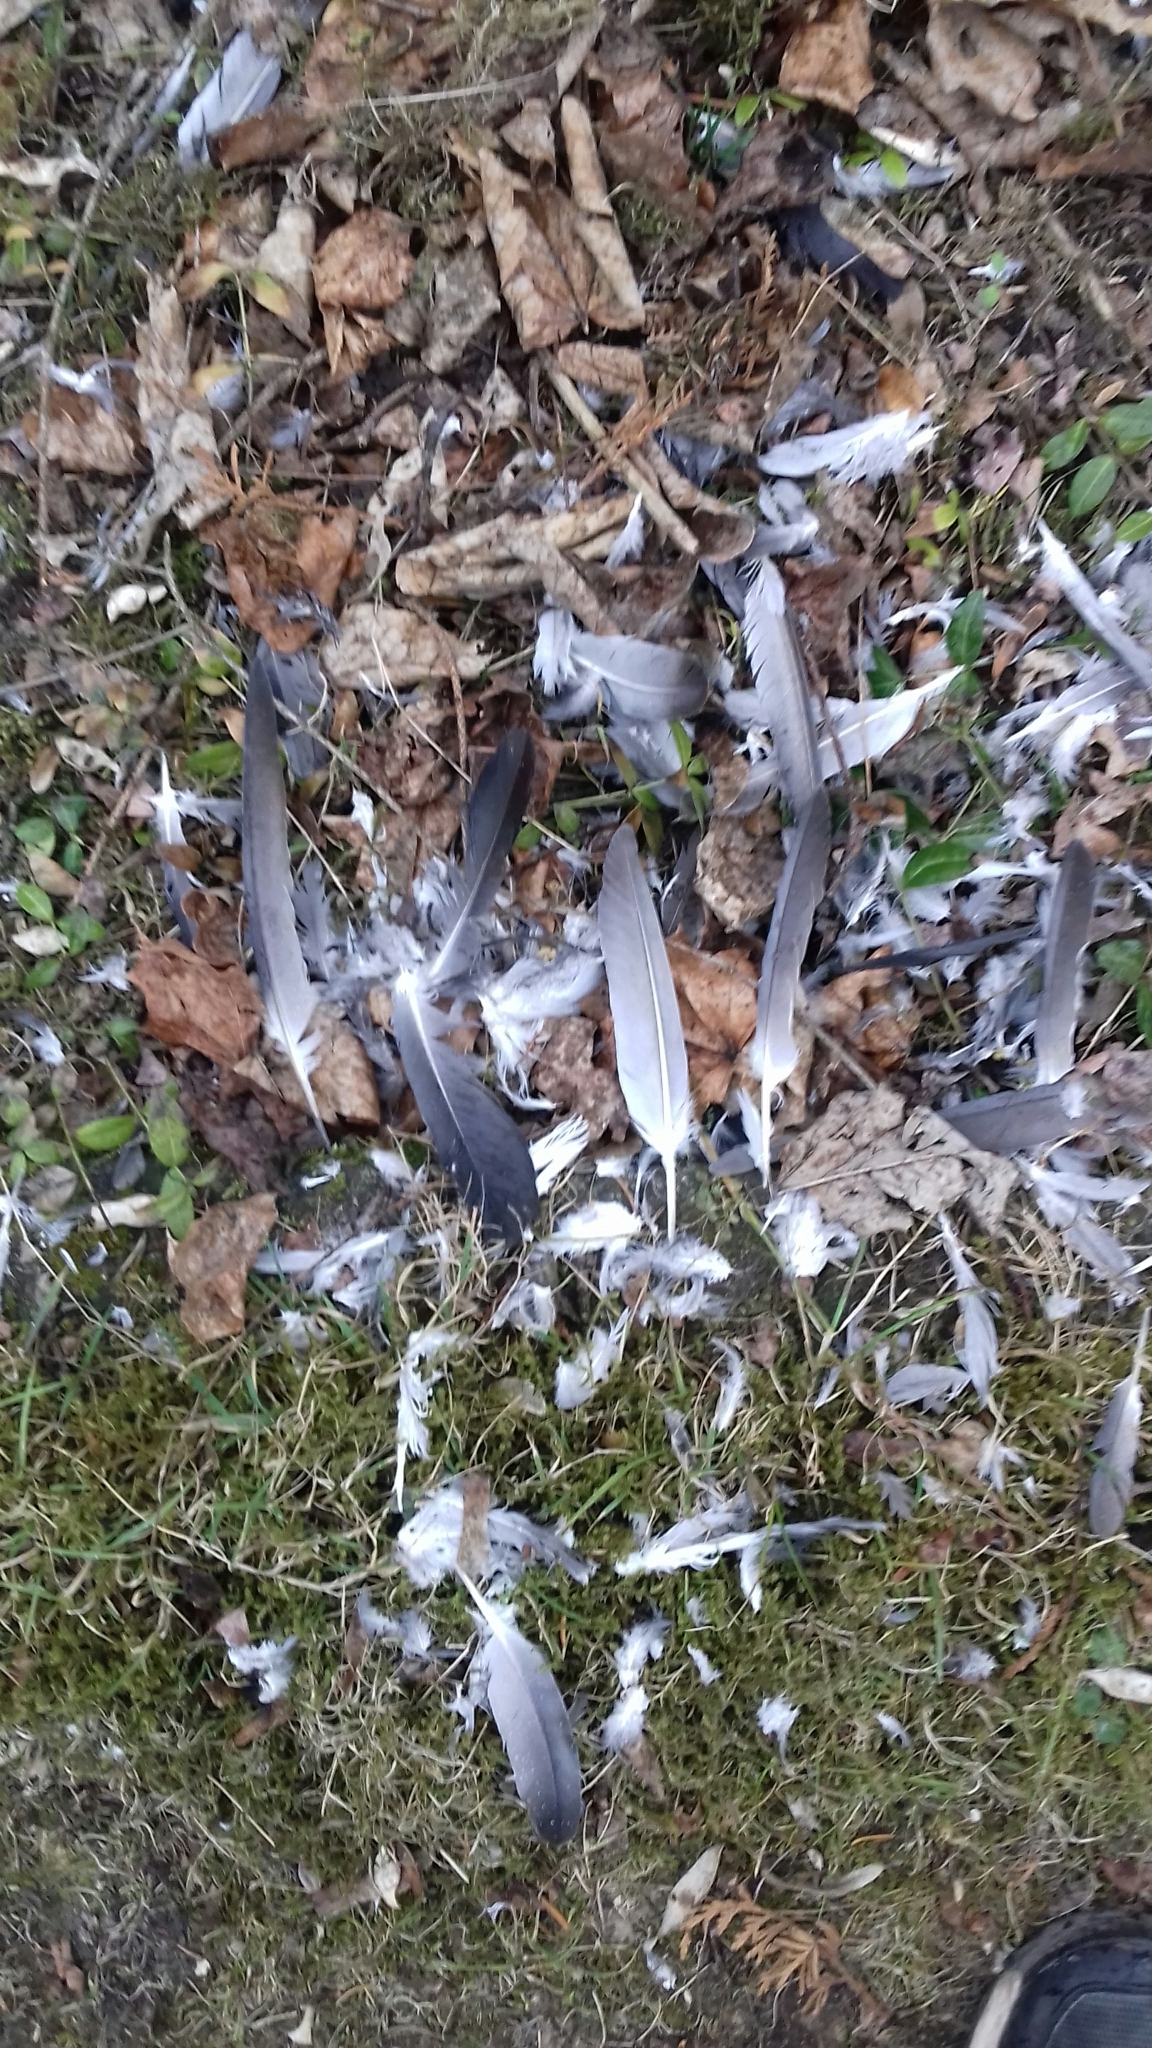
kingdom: Animalia
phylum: Chordata
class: Aves
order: Columbiformes
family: Columbidae
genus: Columba
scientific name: Columba livia
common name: Rock pigeon
